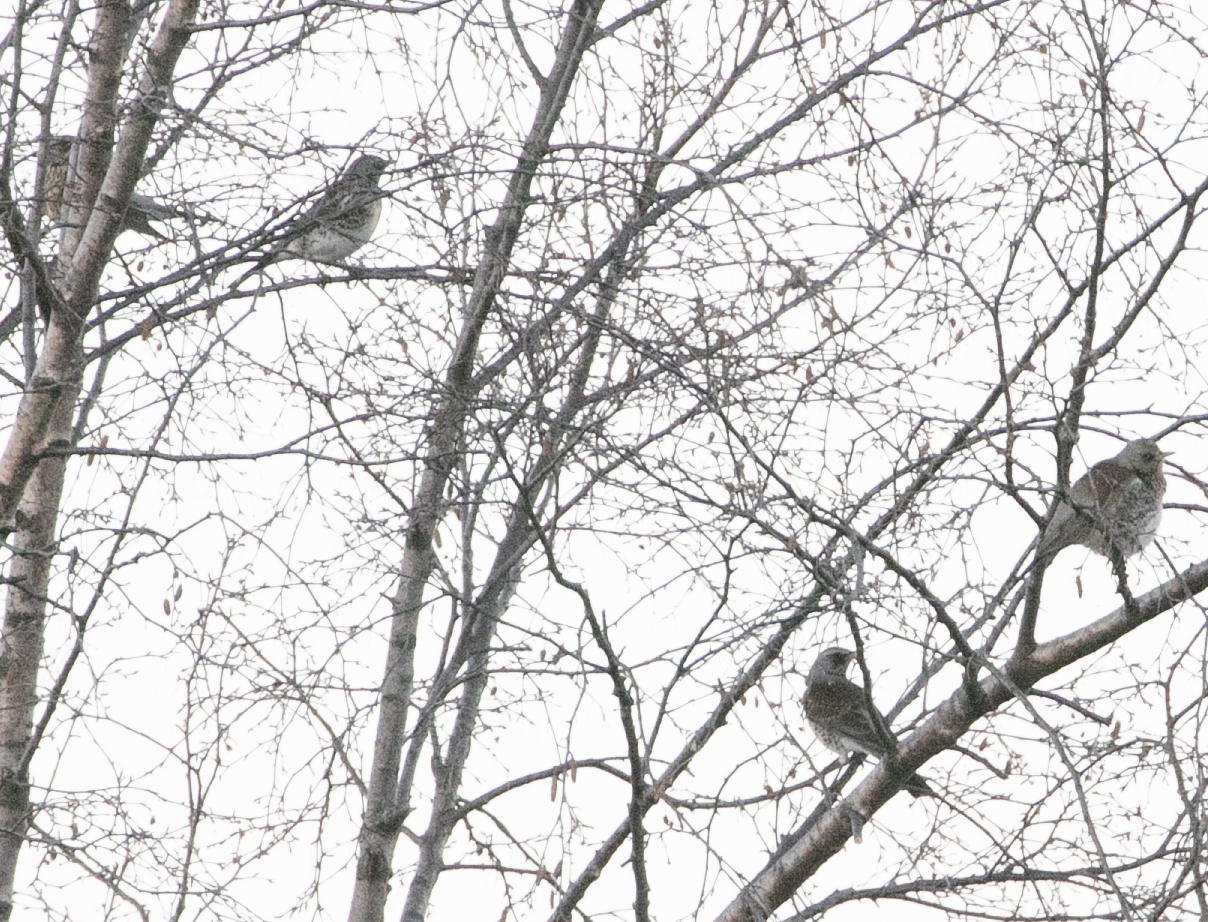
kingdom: Animalia
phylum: Chordata
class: Aves
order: Passeriformes
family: Turdidae
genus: Turdus
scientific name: Turdus pilaris
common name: Fieldfare
